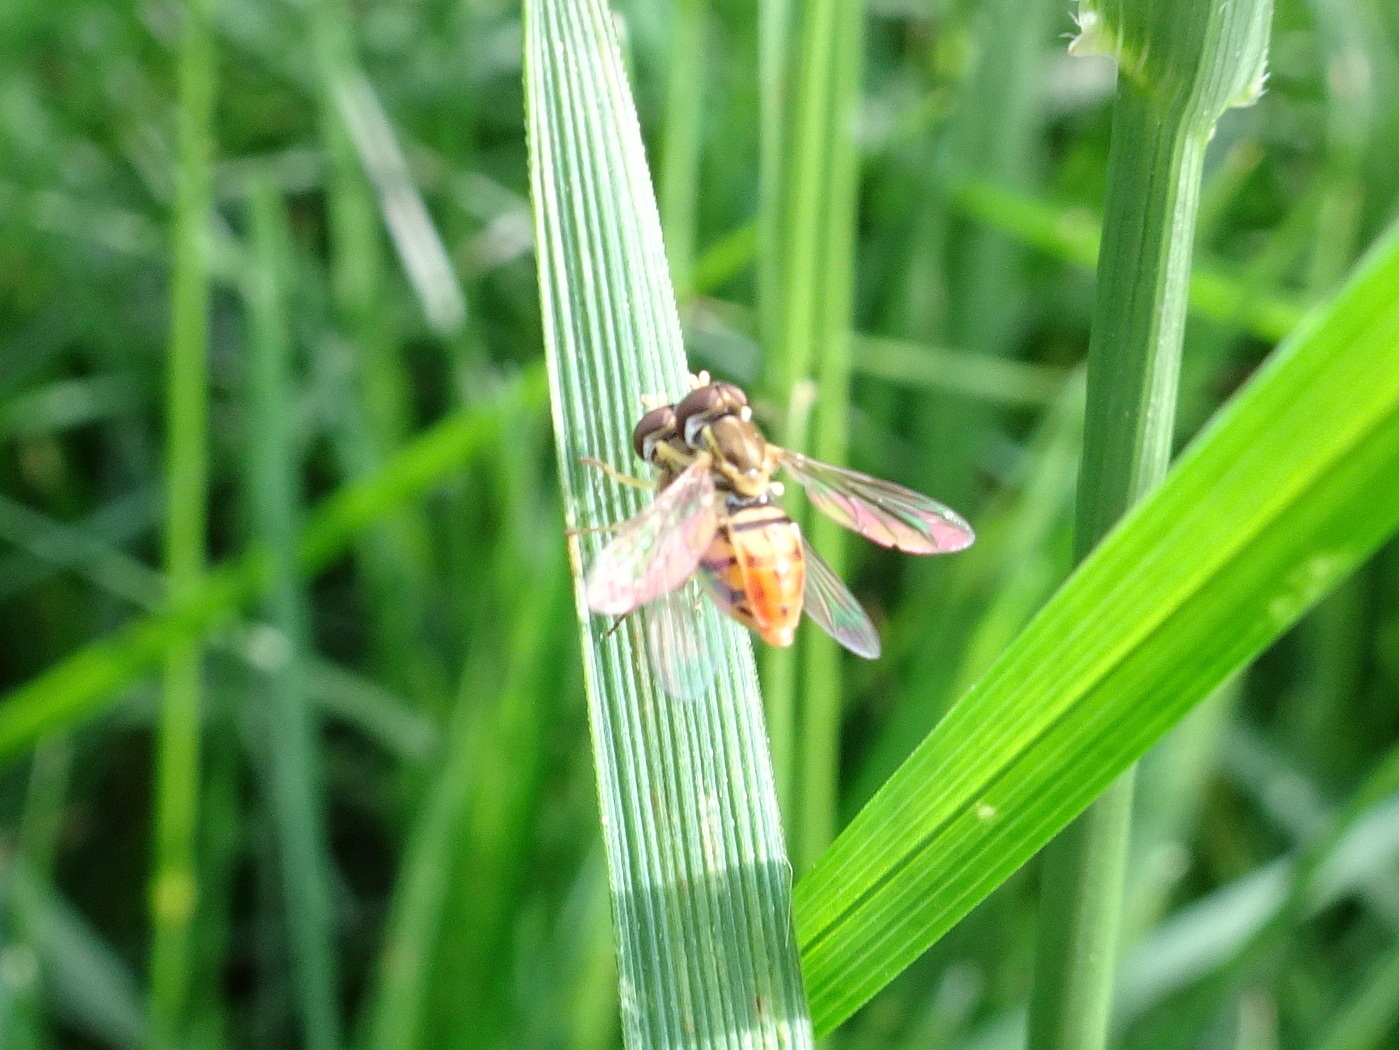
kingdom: Animalia
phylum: Arthropoda
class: Insecta
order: Diptera
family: Syrphidae
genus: Toxomerus
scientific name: Toxomerus marginatus
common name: Syrphid fly
